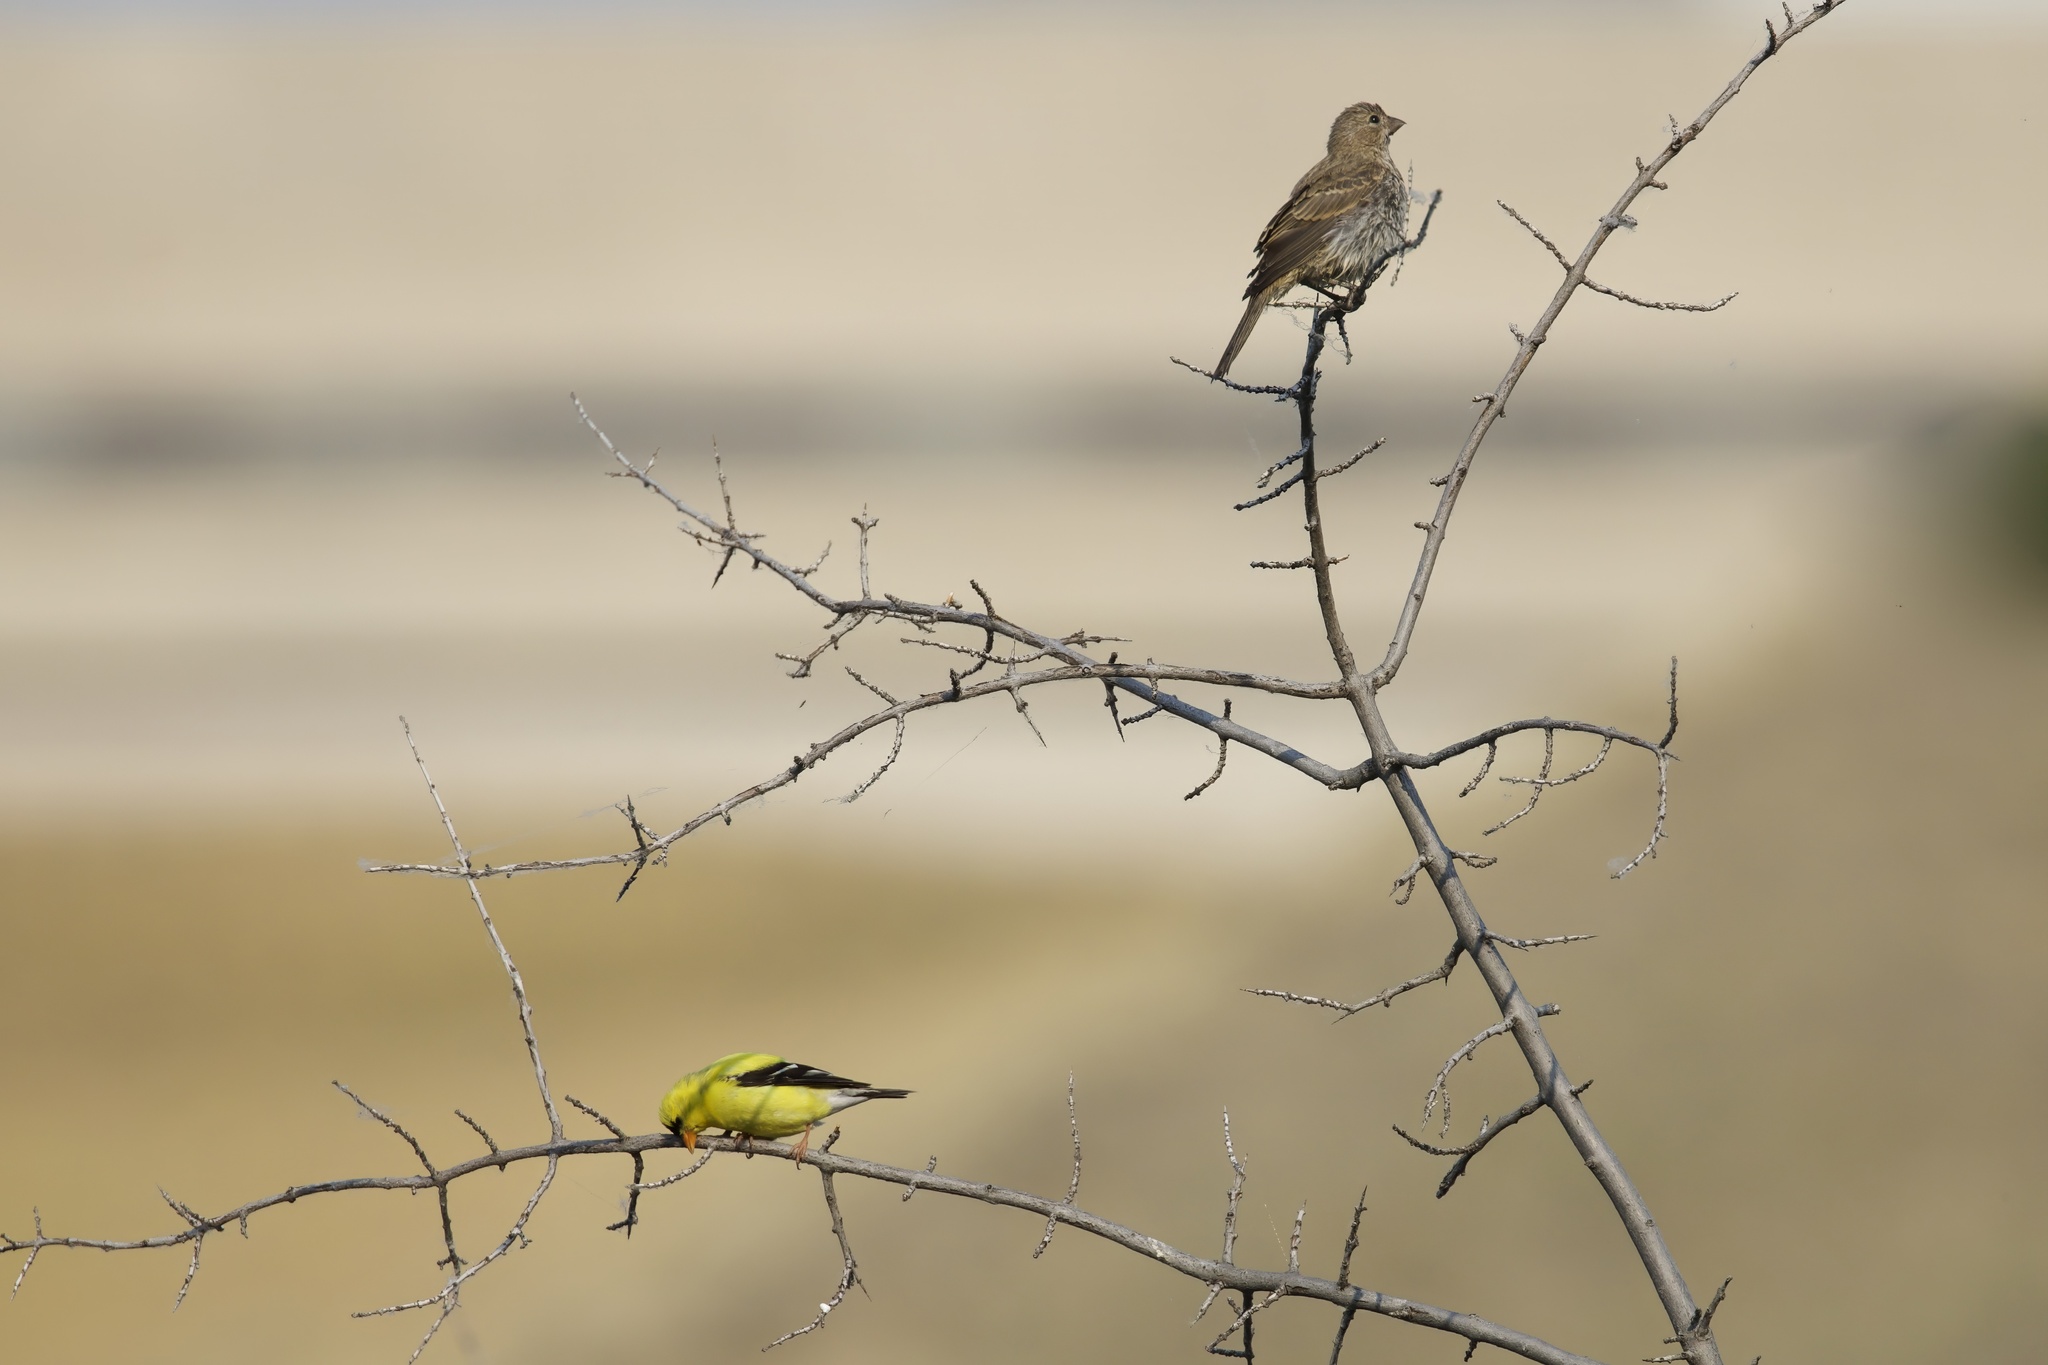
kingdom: Animalia
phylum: Chordata
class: Aves
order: Passeriformes
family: Fringillidae
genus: Spinus
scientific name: Spinus tristis
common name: American goldfinch
